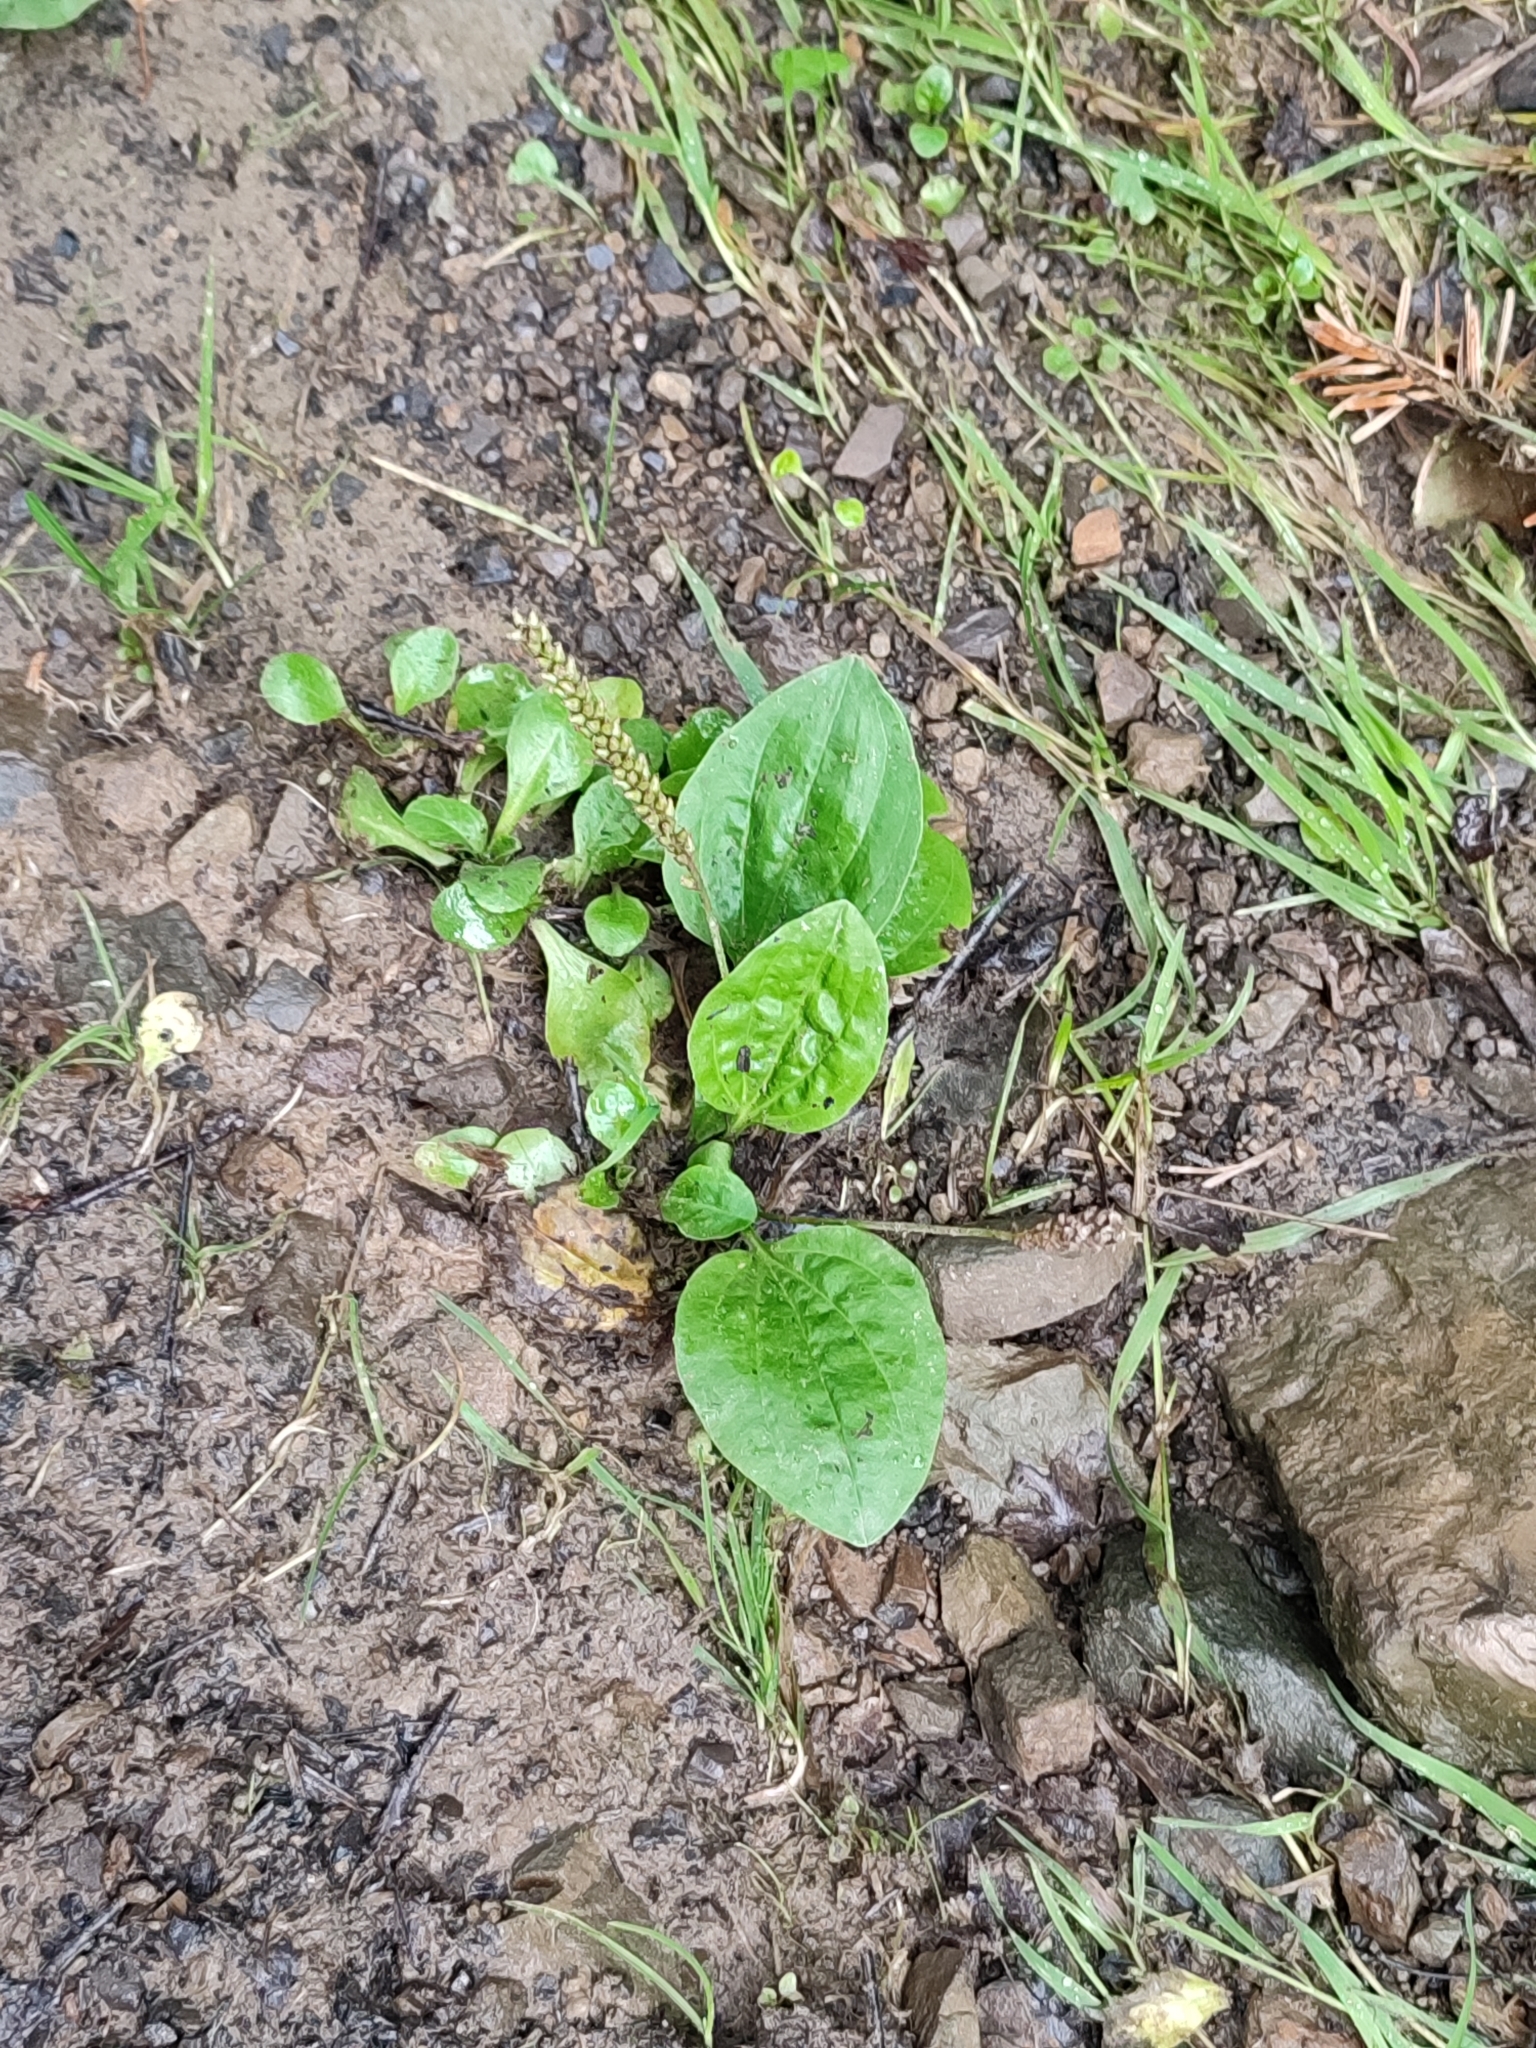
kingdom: Plantae
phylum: Tracheophyta
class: Magnoliopsida
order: Lamiales
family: Plantaginaceae
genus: Plantago
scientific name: Plantago major
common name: Common plantain
